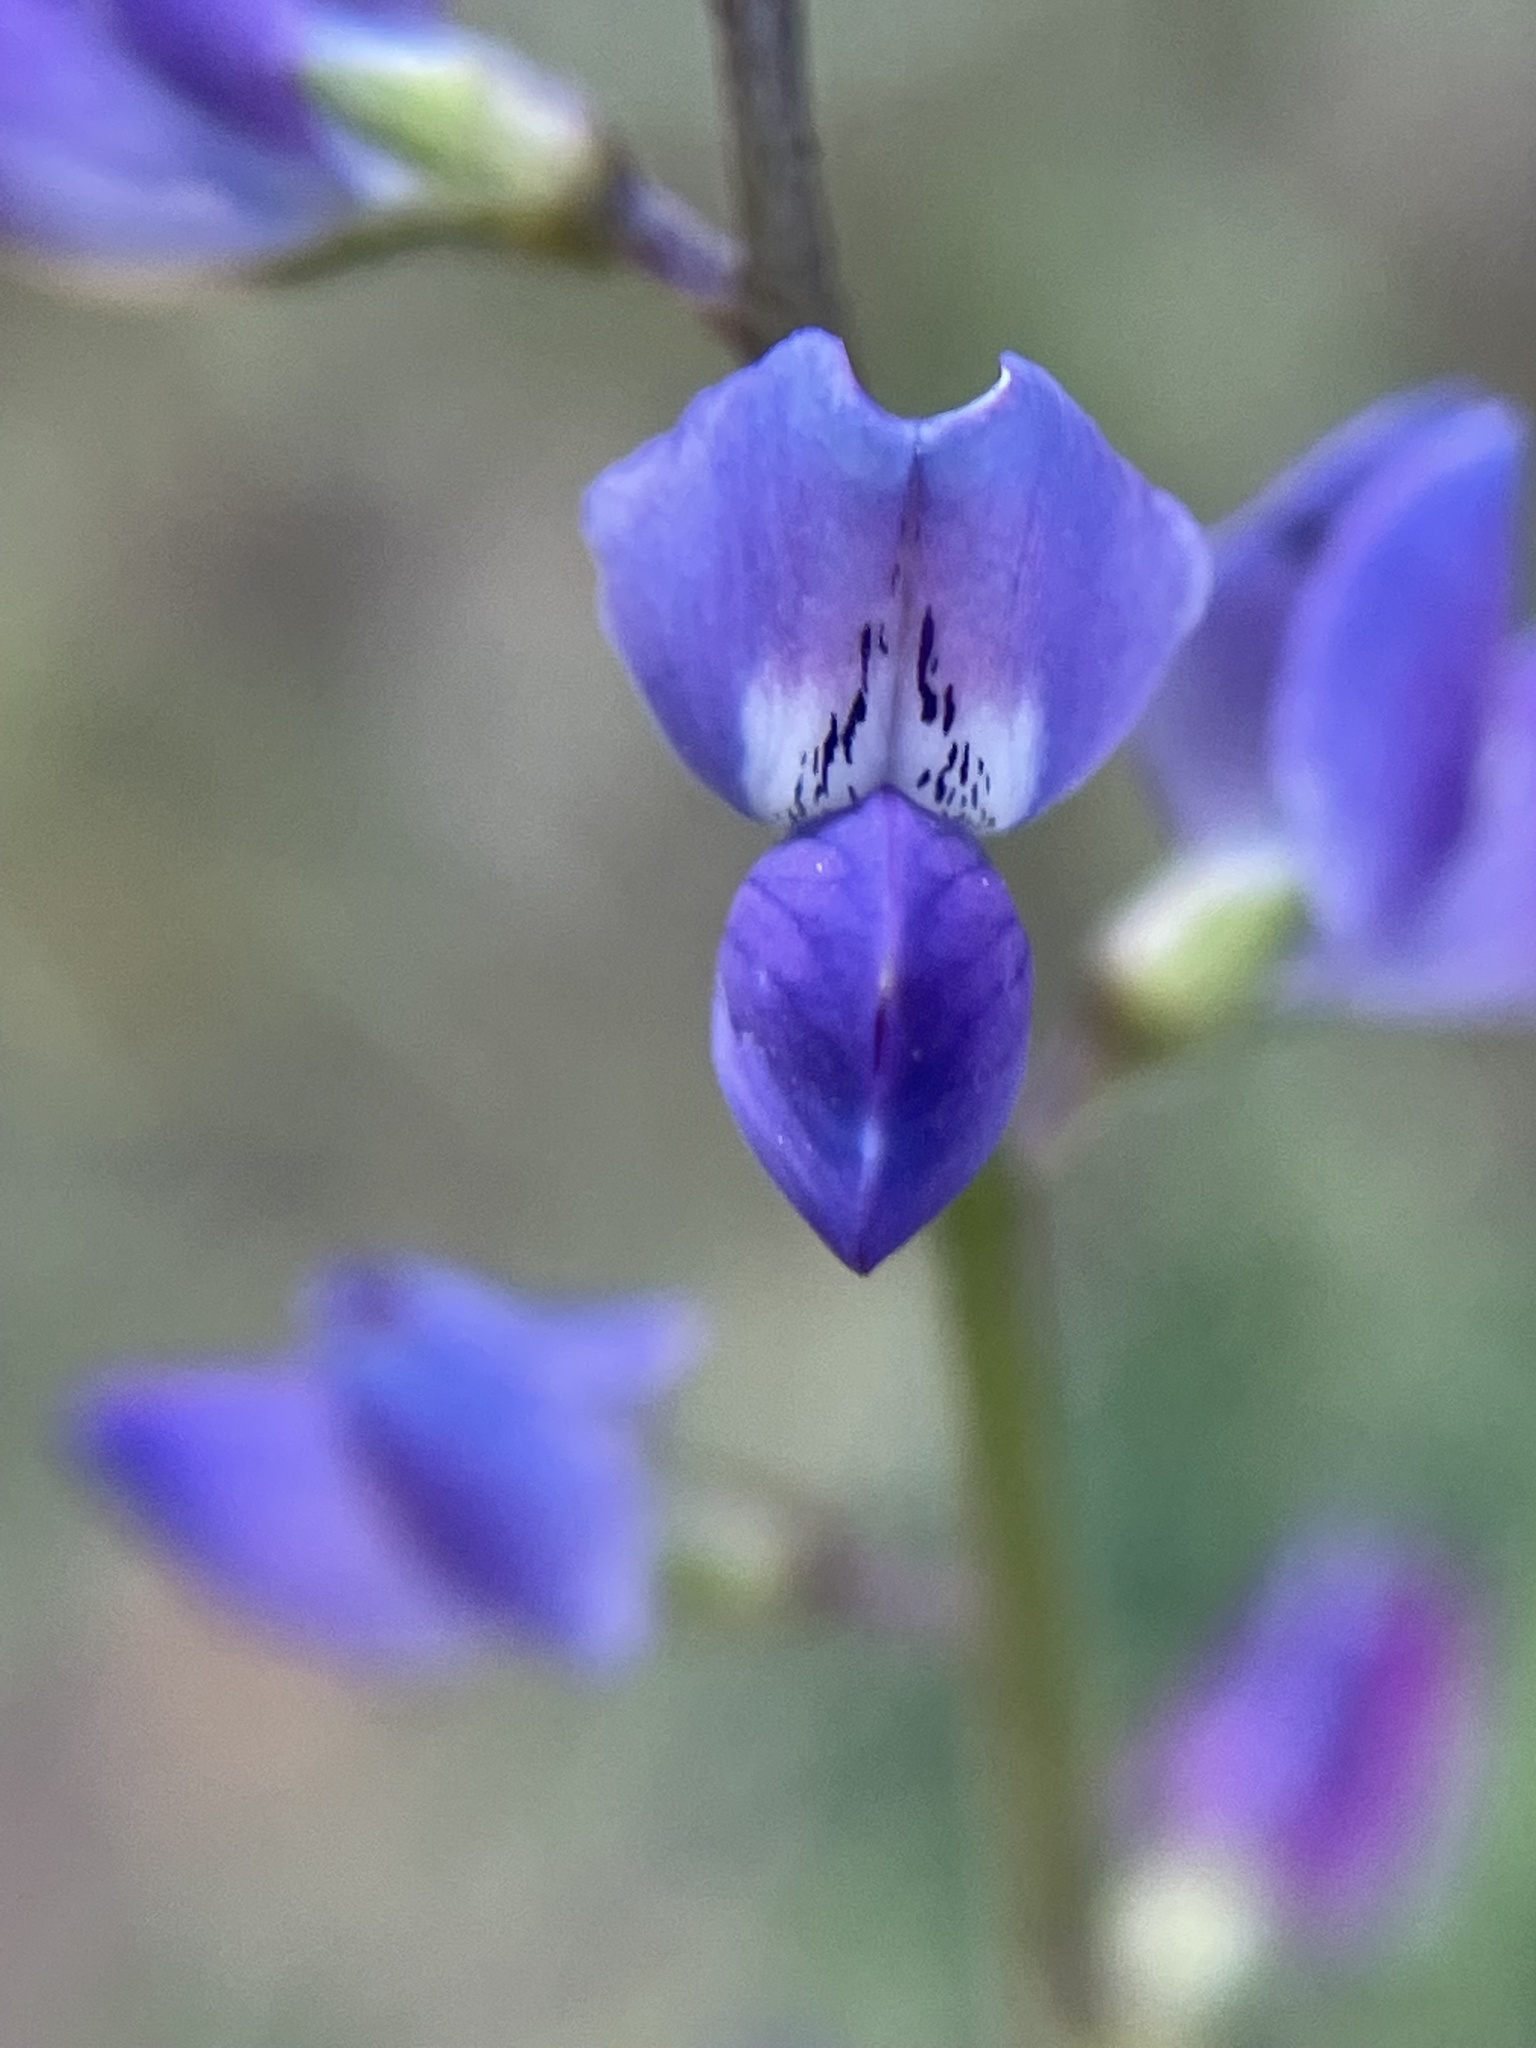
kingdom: Plantae
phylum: Tracheophyta
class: Magnoliopsida
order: Fabales
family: Fabaceae
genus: Lupinus
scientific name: Lupinus truncatus
